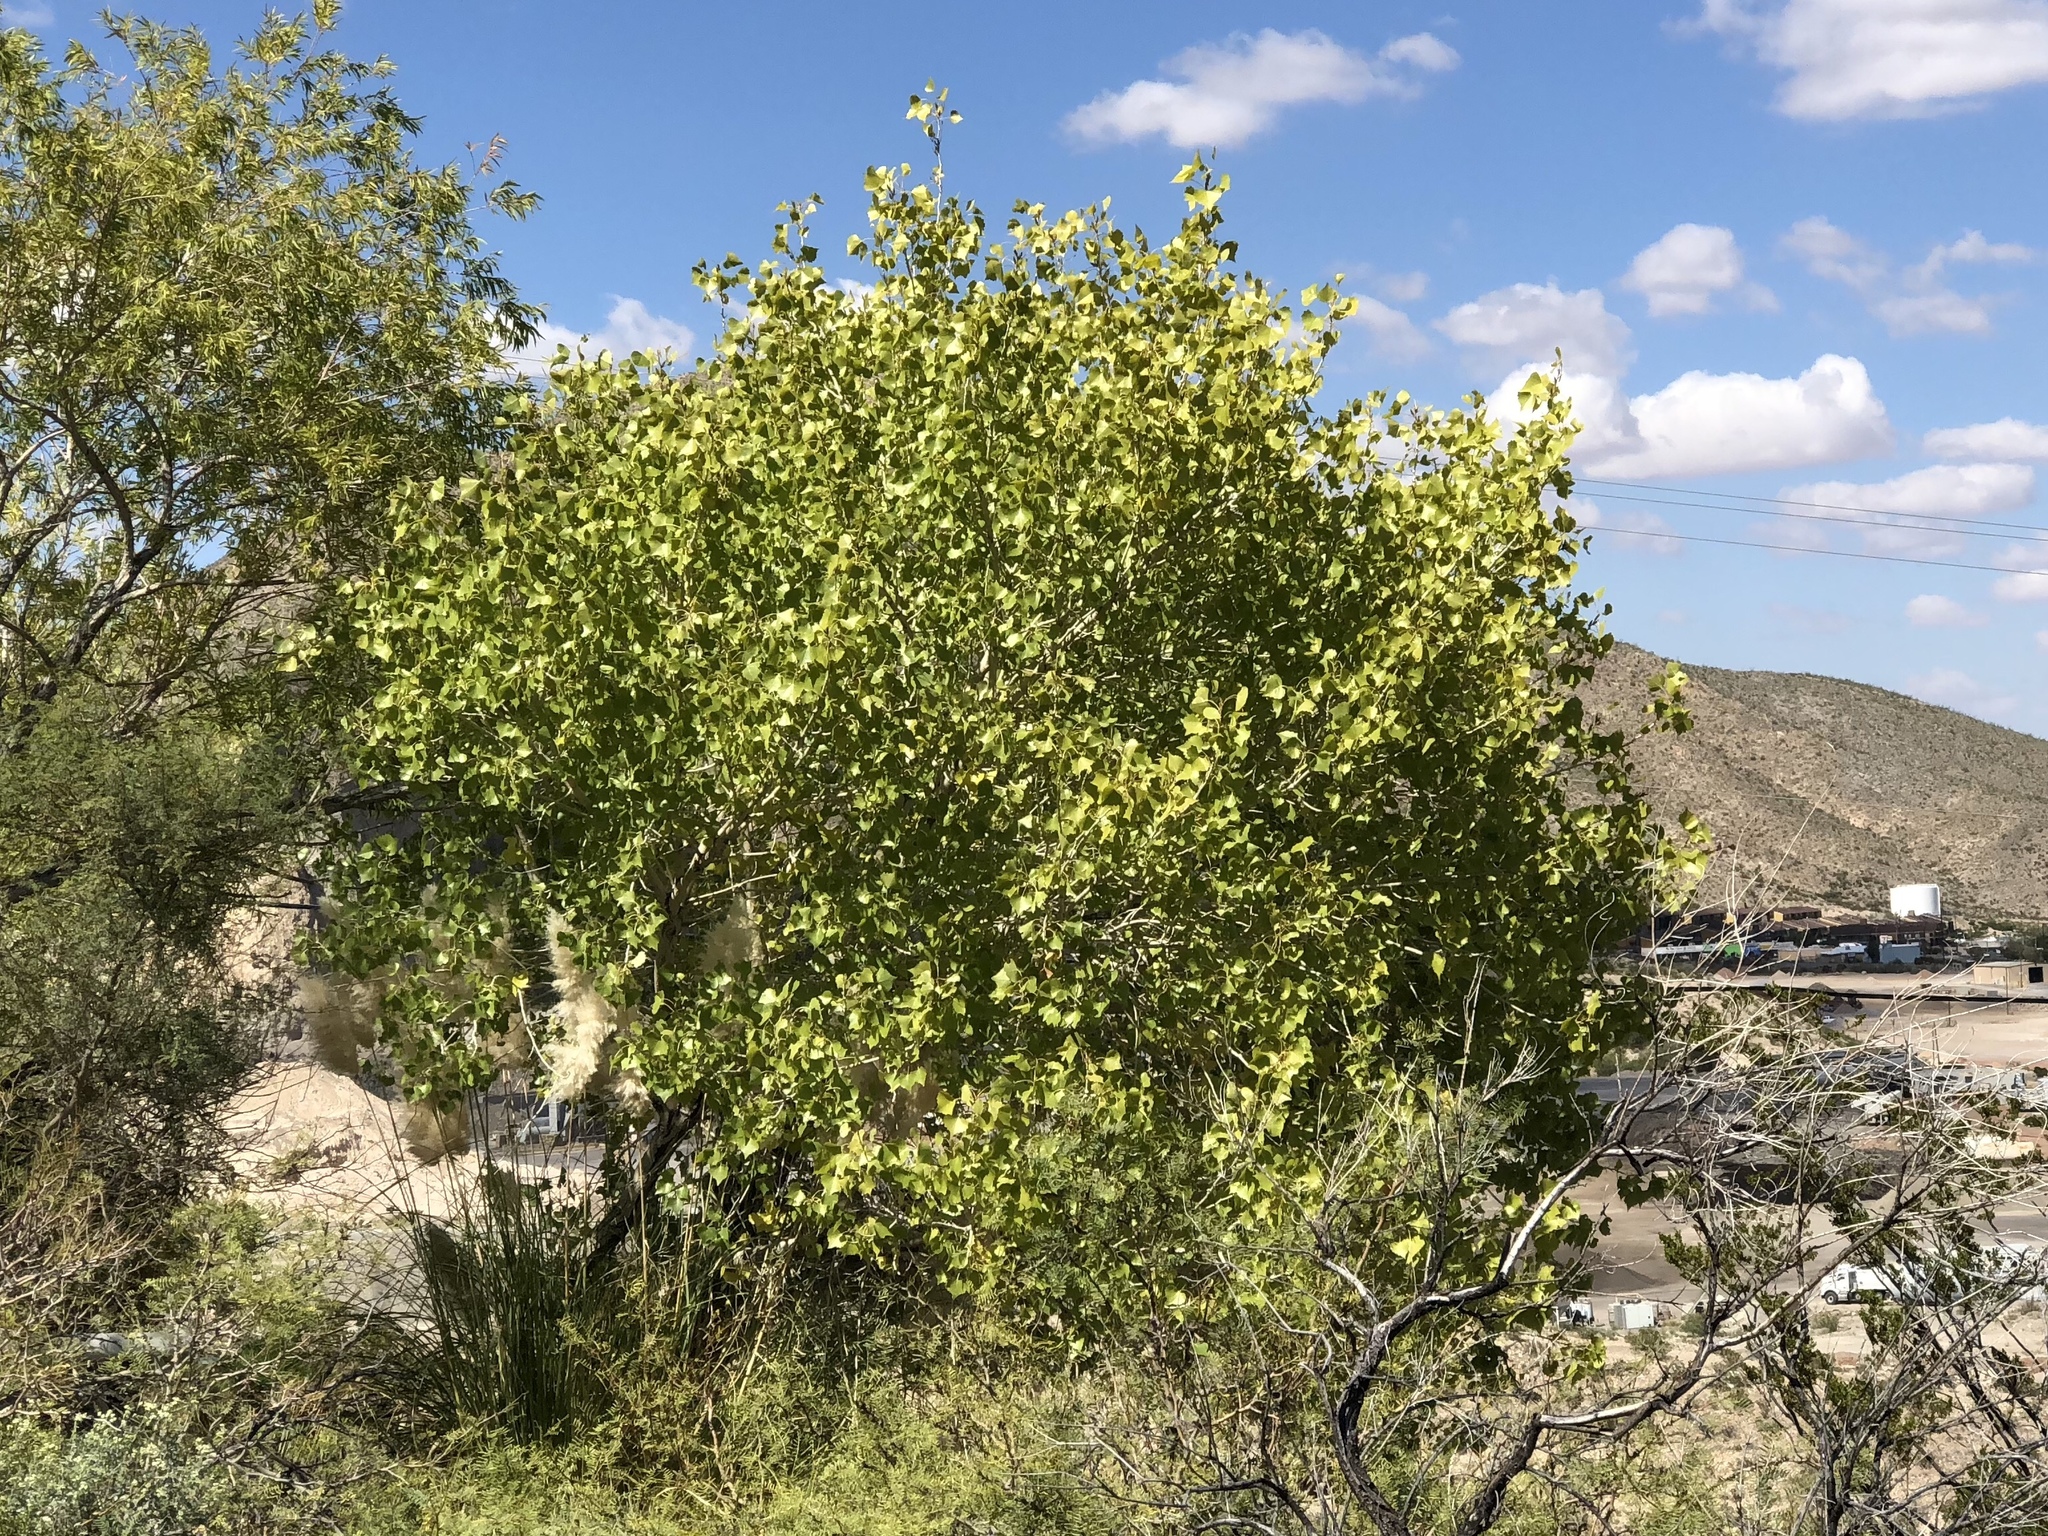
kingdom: Plantae
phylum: Tracheophyta
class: Magnoliopsida
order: Malpighiales
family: Salicaceae
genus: Populus
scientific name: Populus fremontii
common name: Fremont's cottonwood
